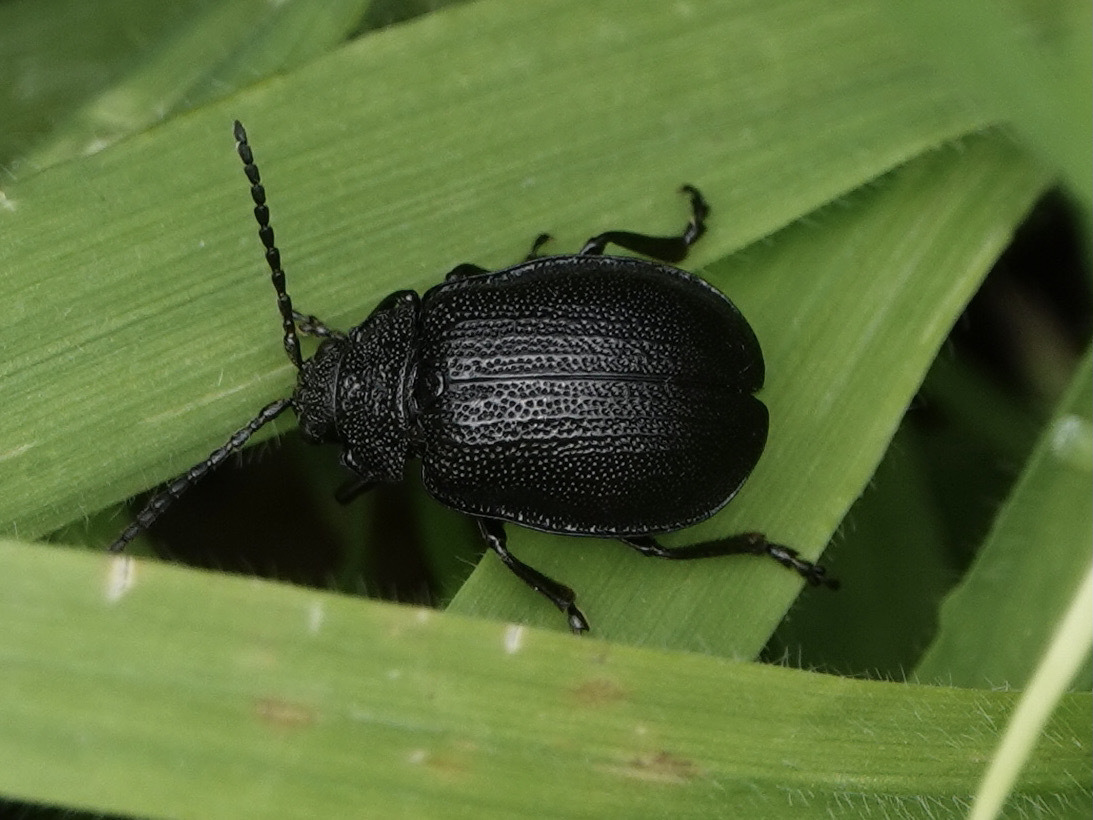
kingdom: Animalia
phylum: Arthropoda
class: Insecta
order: Coleoptera
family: Chrysomelidae
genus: Galeruca
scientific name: Galeruca tanaceti
